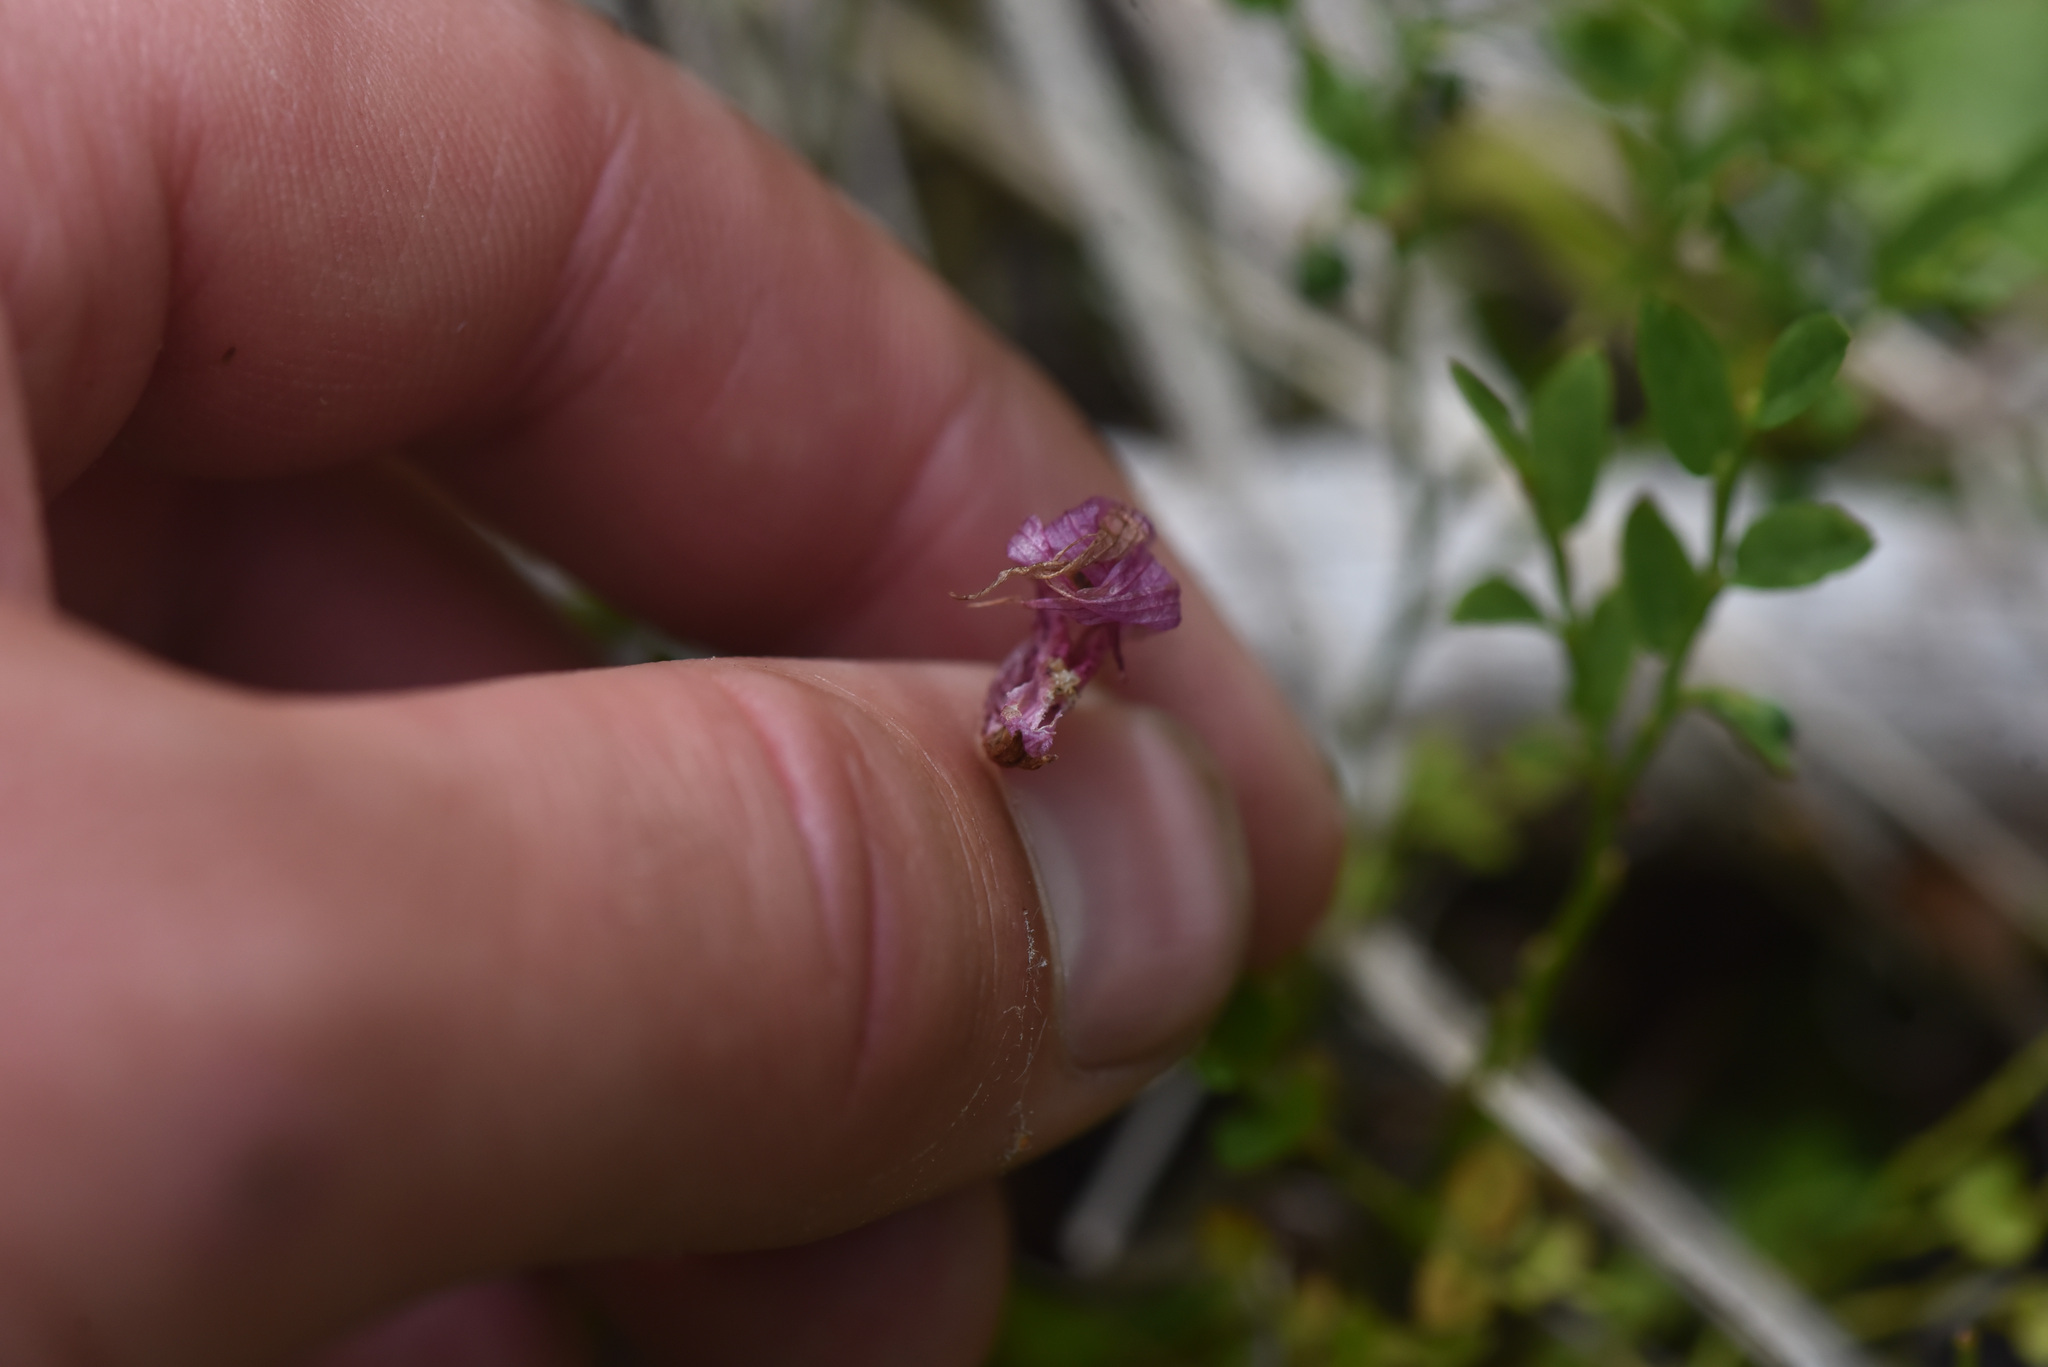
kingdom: Plantae
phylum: Tracheophyta
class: Liliopsida
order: Asparagales
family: Orchidaceae
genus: Calypso
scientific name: Calypso bulbosa
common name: Calypso
